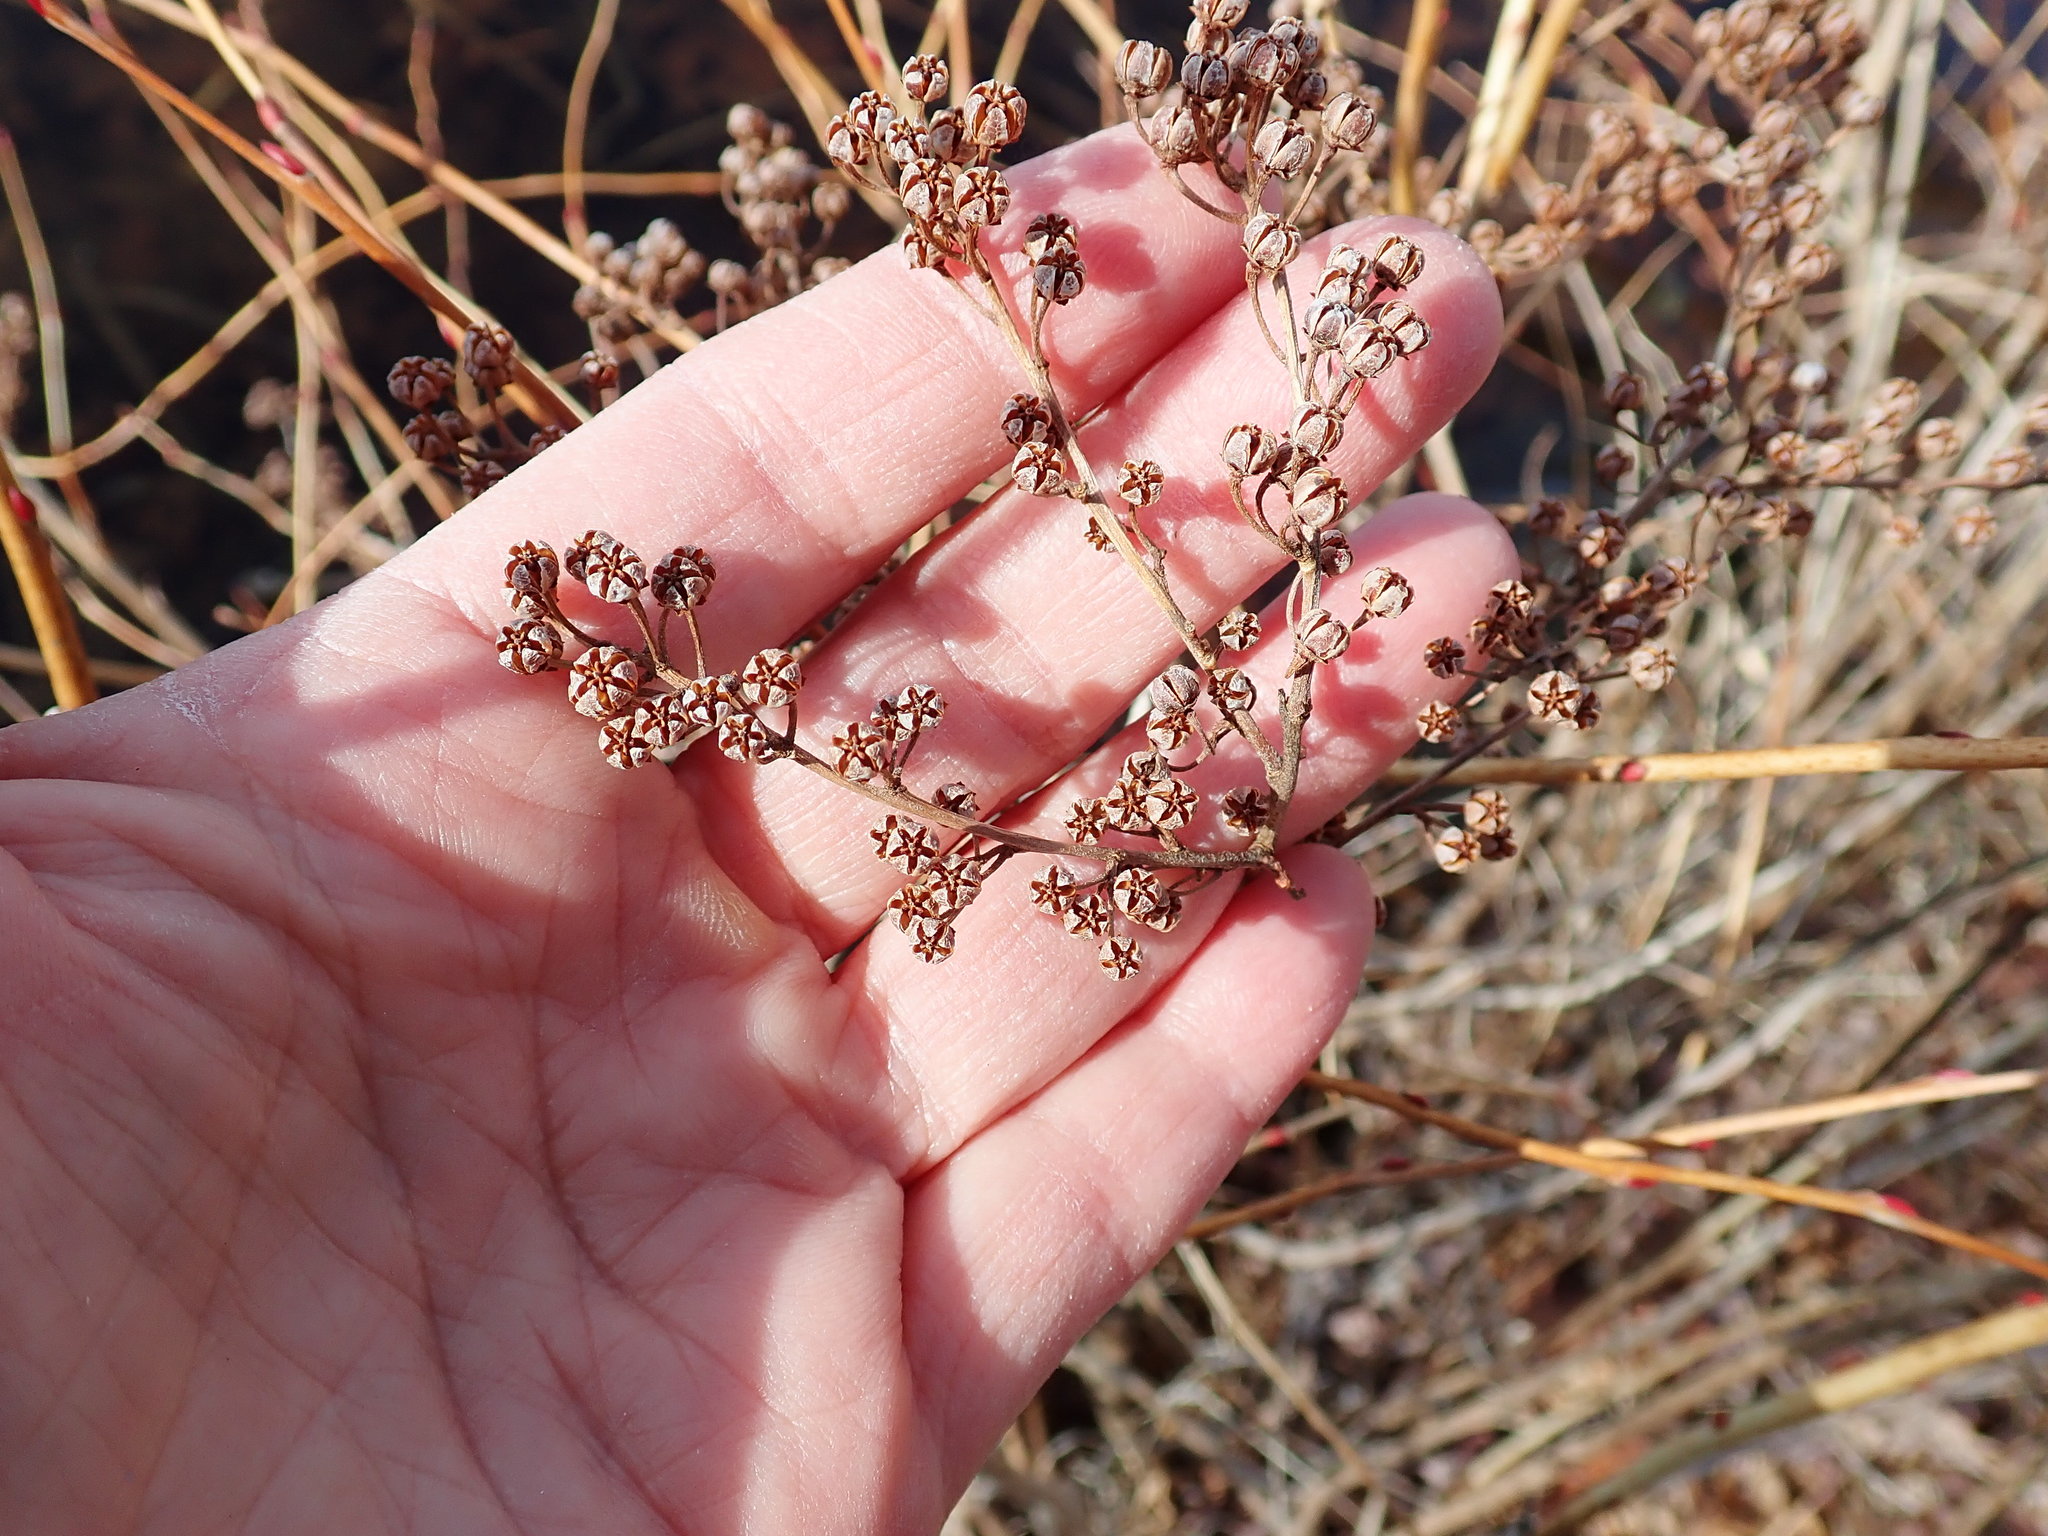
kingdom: Plantae
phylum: Tracheophyta
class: Magnoliopsida
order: Ericales
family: Ericaceae
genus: Lyonia
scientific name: Lyonia ligustrina
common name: Maleberry
